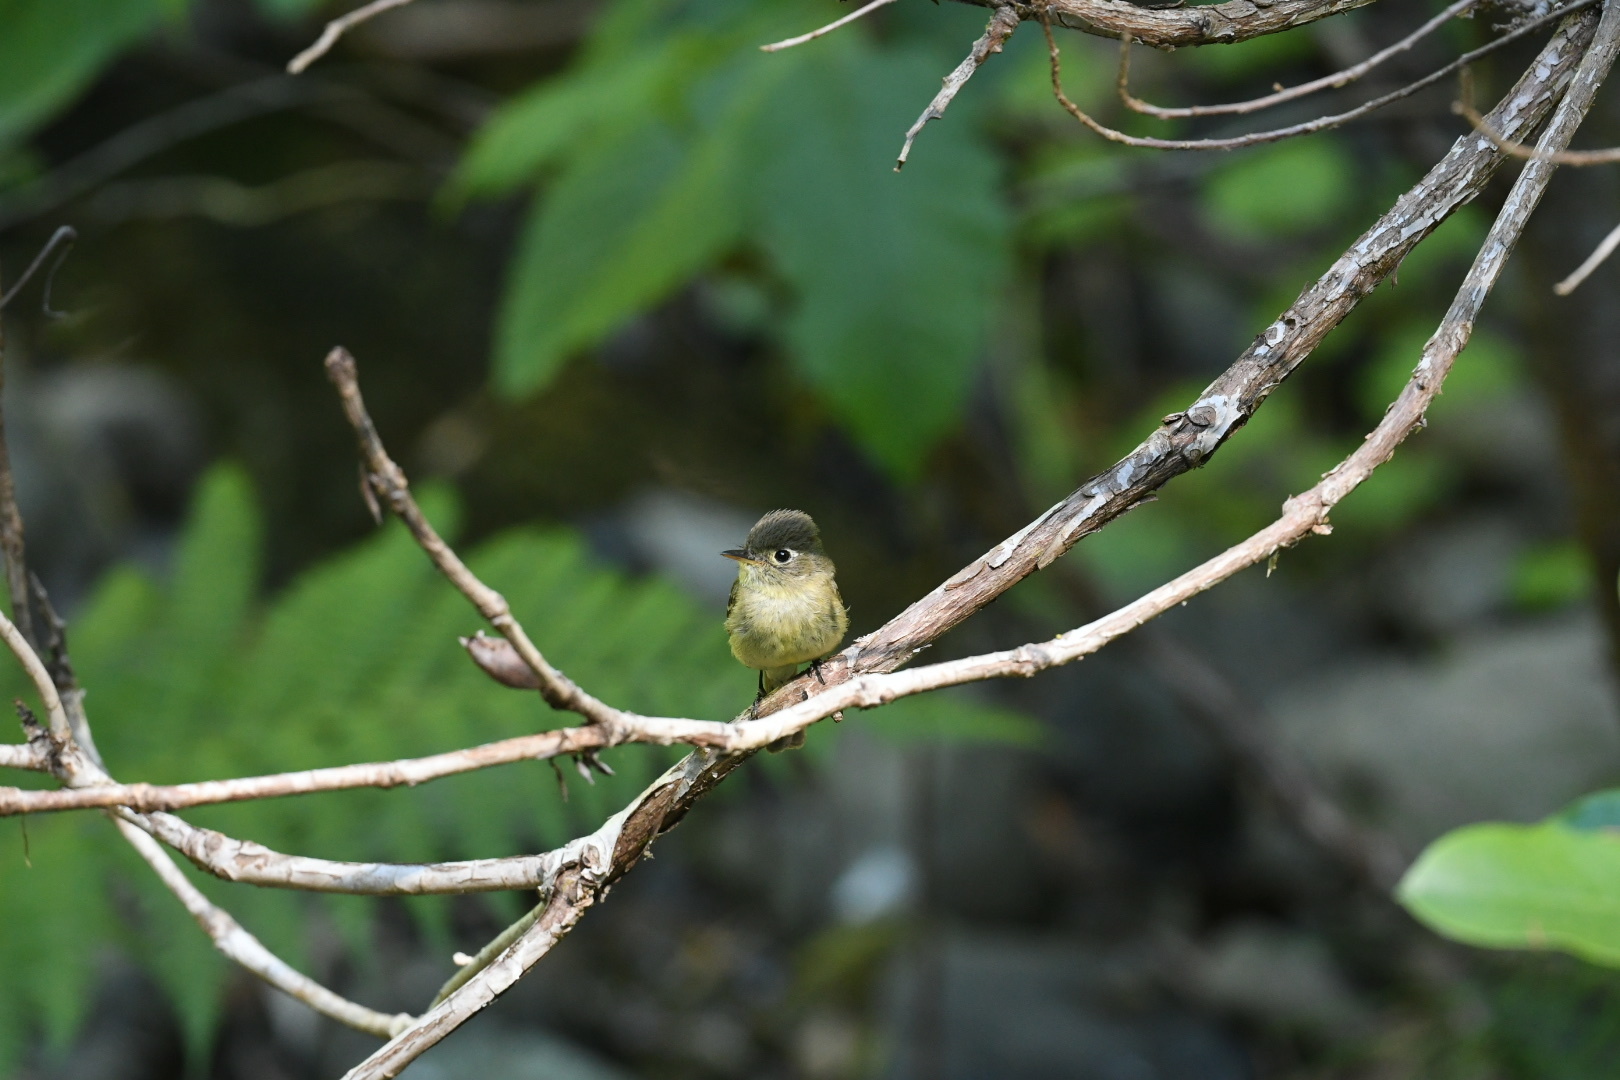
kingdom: Animalia
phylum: Chordata
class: Aves
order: Passeriformes
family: Tyrannidae
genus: Empidonax
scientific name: Empidonax difficilis
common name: Pacific-slope flycatcher
